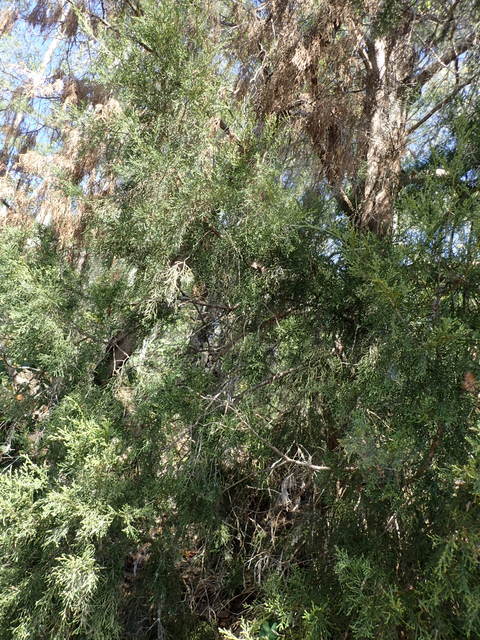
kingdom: Plantae
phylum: Tracheophyta
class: Pinopsida
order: Pinales
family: Cupressaceae
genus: Juniperus
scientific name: Juniperus virginiana
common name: Red juniper
